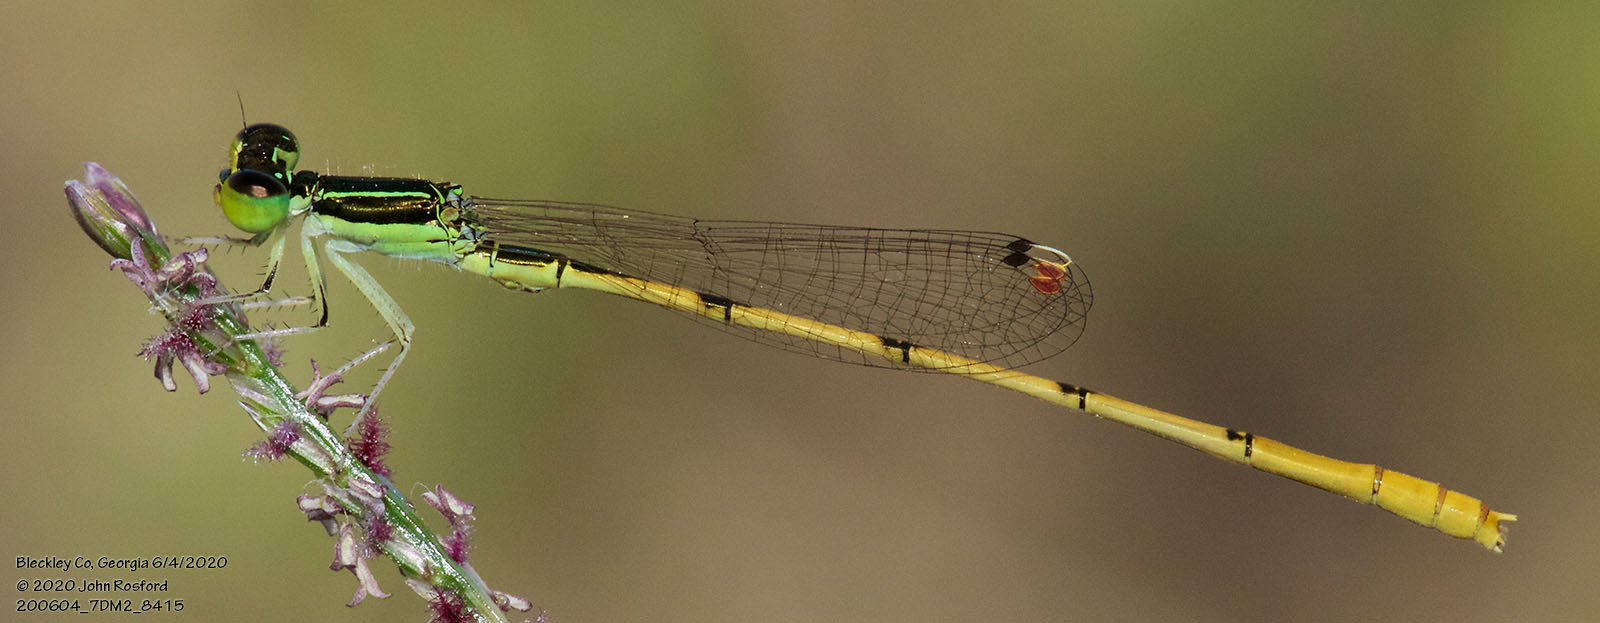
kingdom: Animalia
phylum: Arthropoda
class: Insecta
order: Odonata
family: Coenagrionidae
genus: Ischnura
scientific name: Ischnura hastata
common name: Citrine forktail
